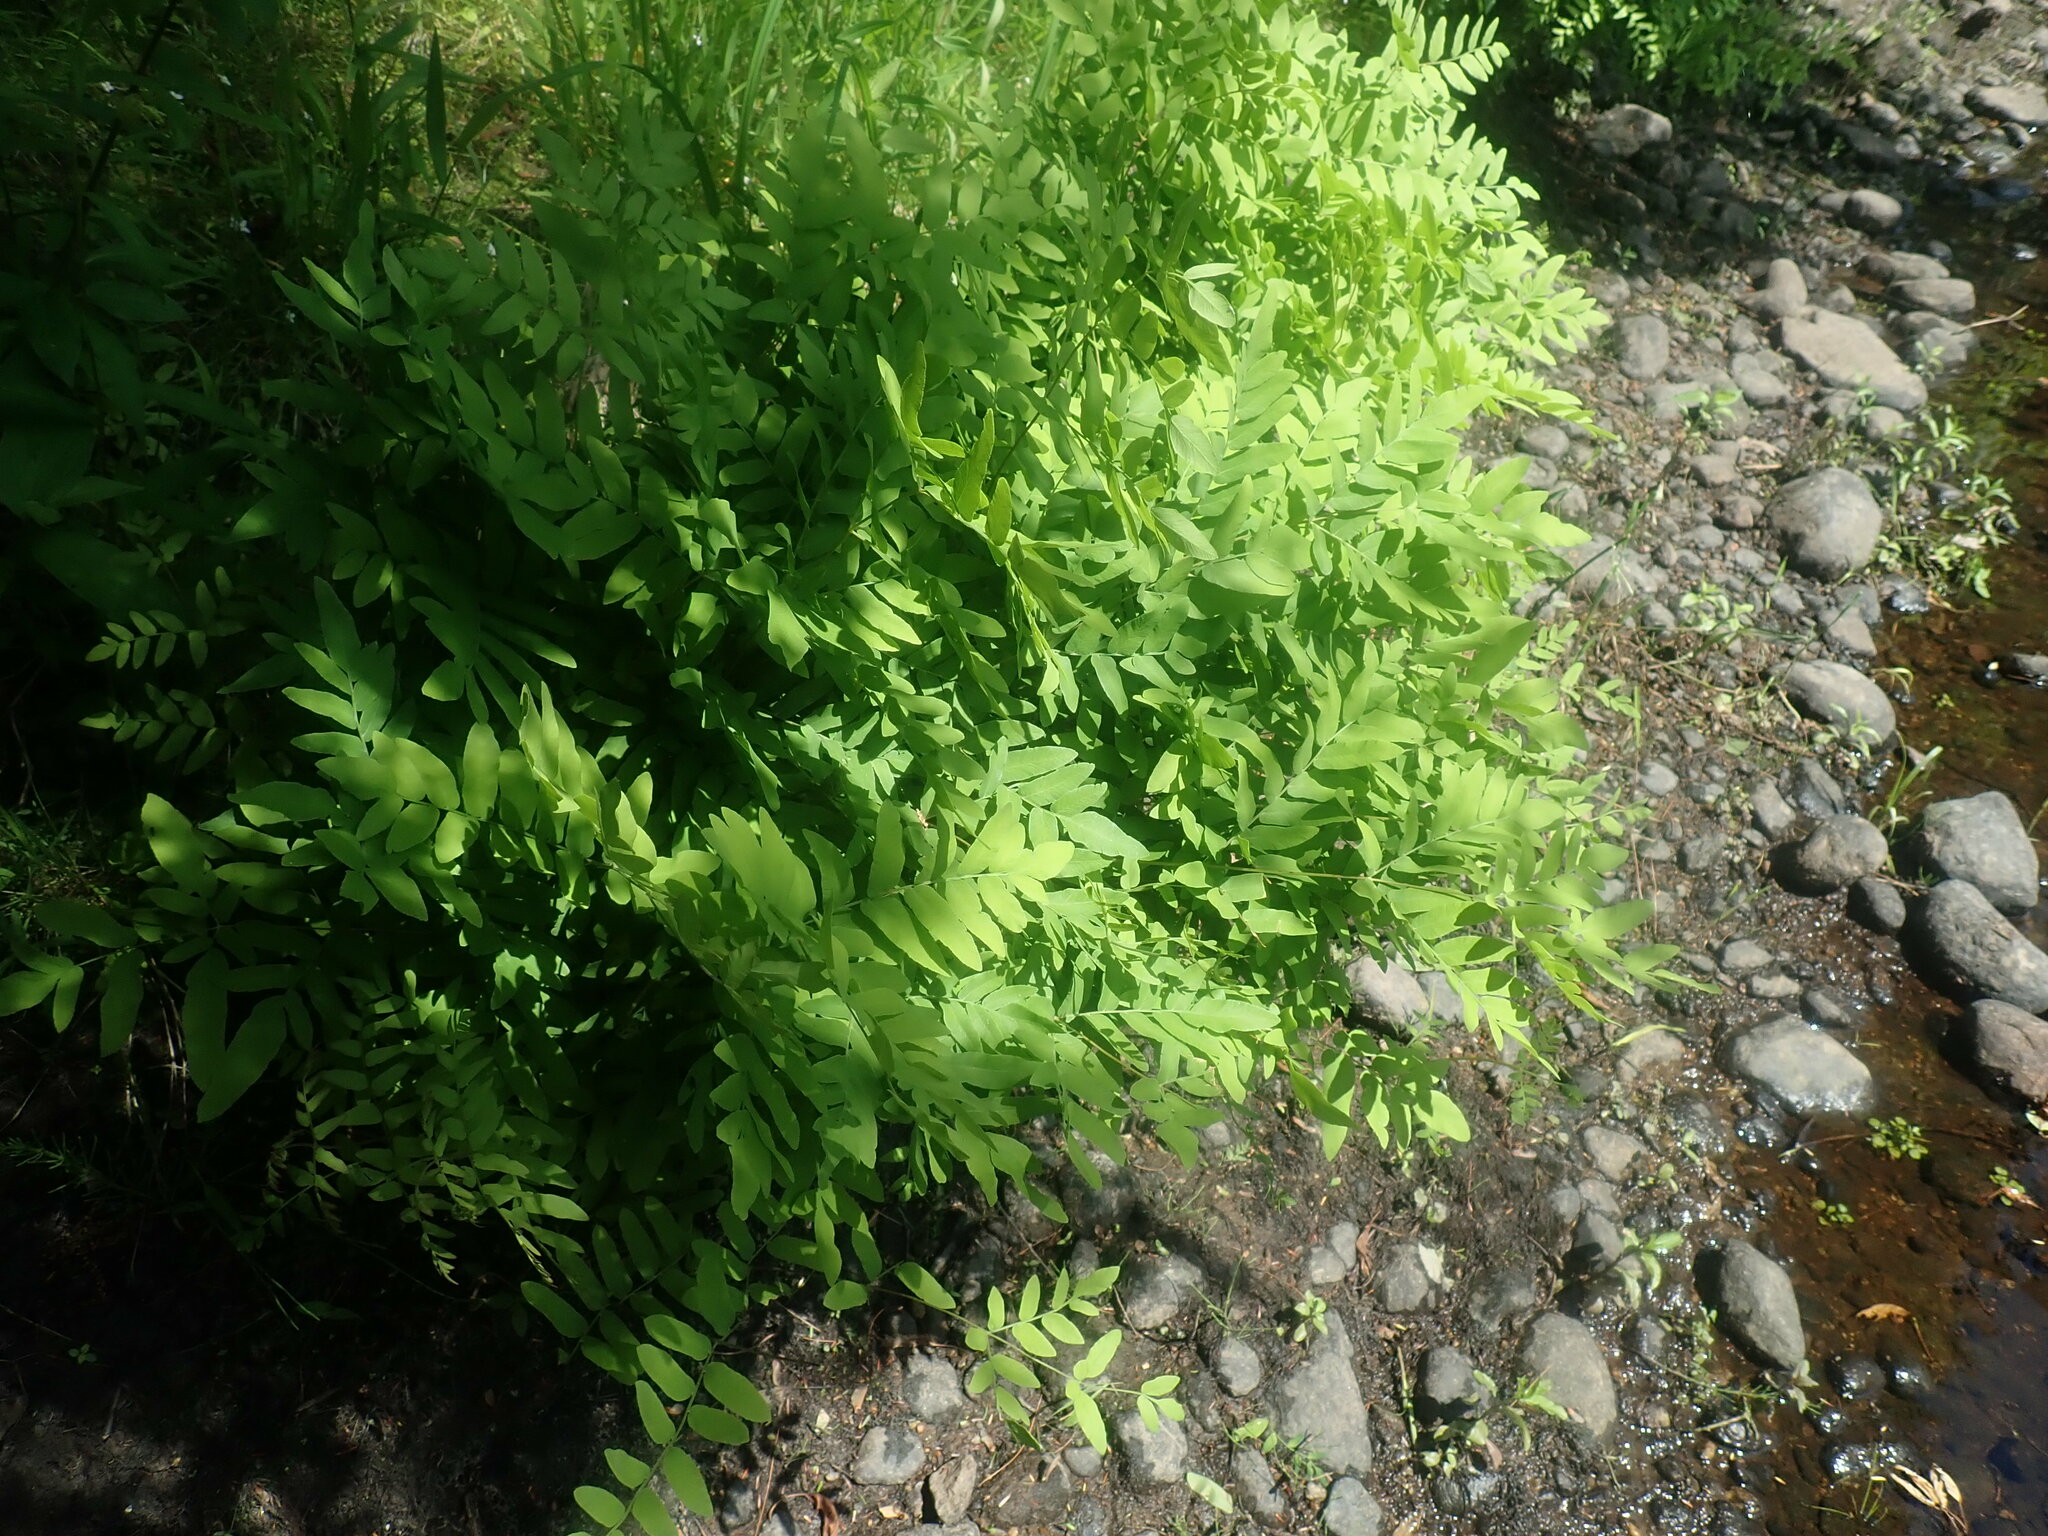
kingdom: Plantae
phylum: Tracheophyta
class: Polypodiopsida
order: Osmundales
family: Osmundaceae
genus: Osmunda
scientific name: Osmunda spectabilis
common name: American royal fern
